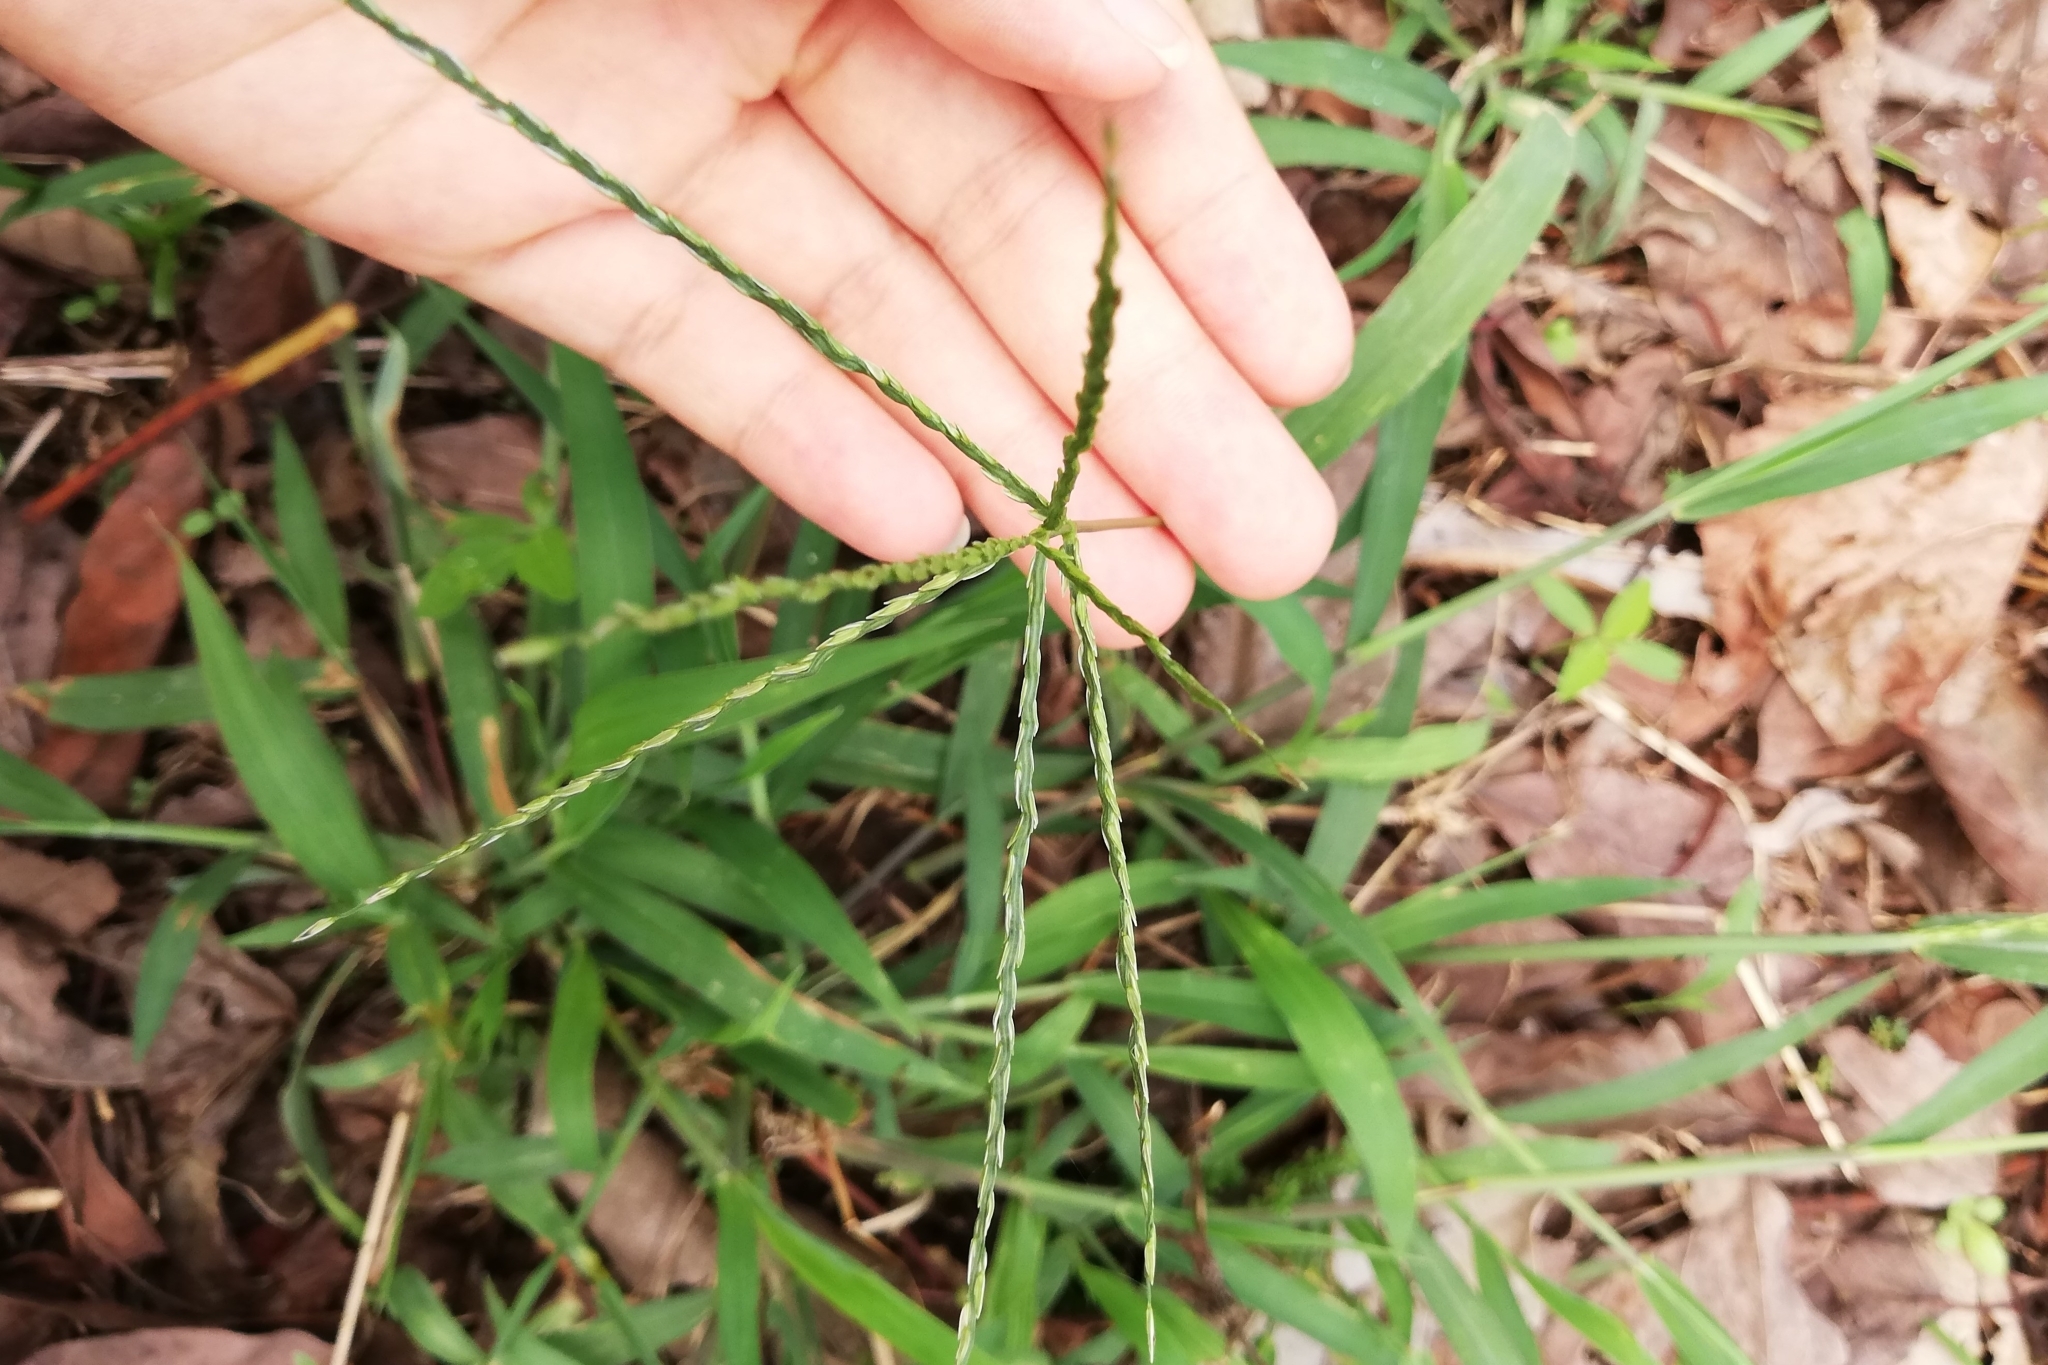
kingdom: Plantae
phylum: Tracheophyta
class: Liliopsida
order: Poales
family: Poaceae
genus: Digitaria
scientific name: Digitaria sanguinalis
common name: Hairy crabgrass
